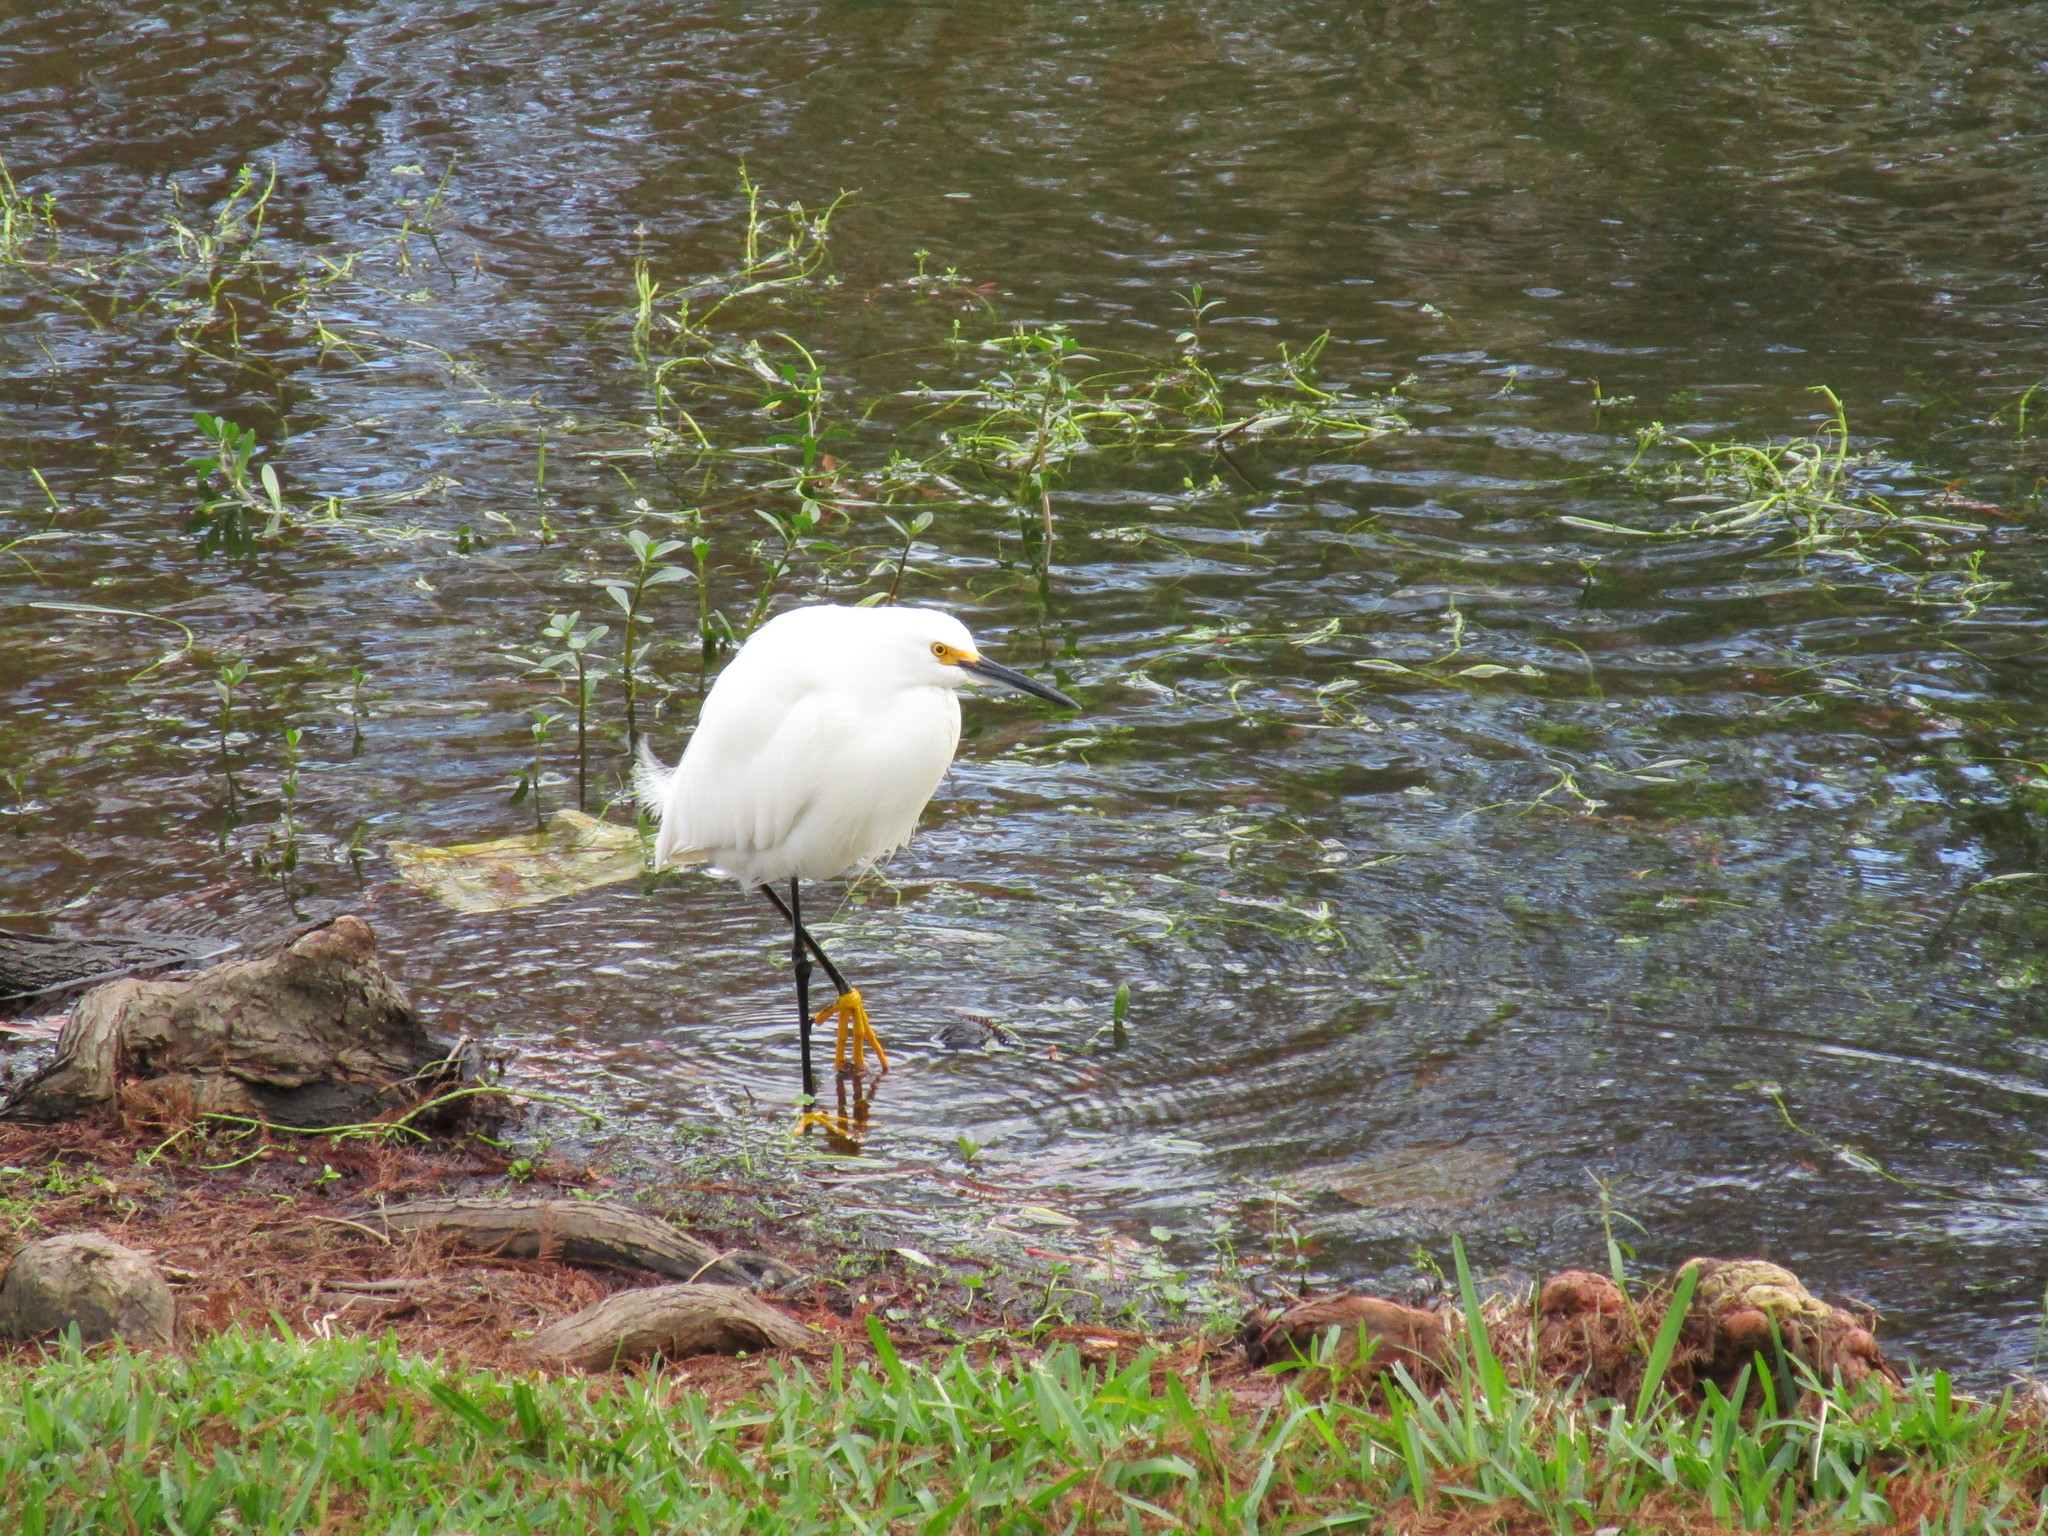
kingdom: Animalia
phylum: Chordata
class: Aves
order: Pelecaniformes
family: Ardeidae
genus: Egretta
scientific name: Egretta thula
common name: Snowy egret
